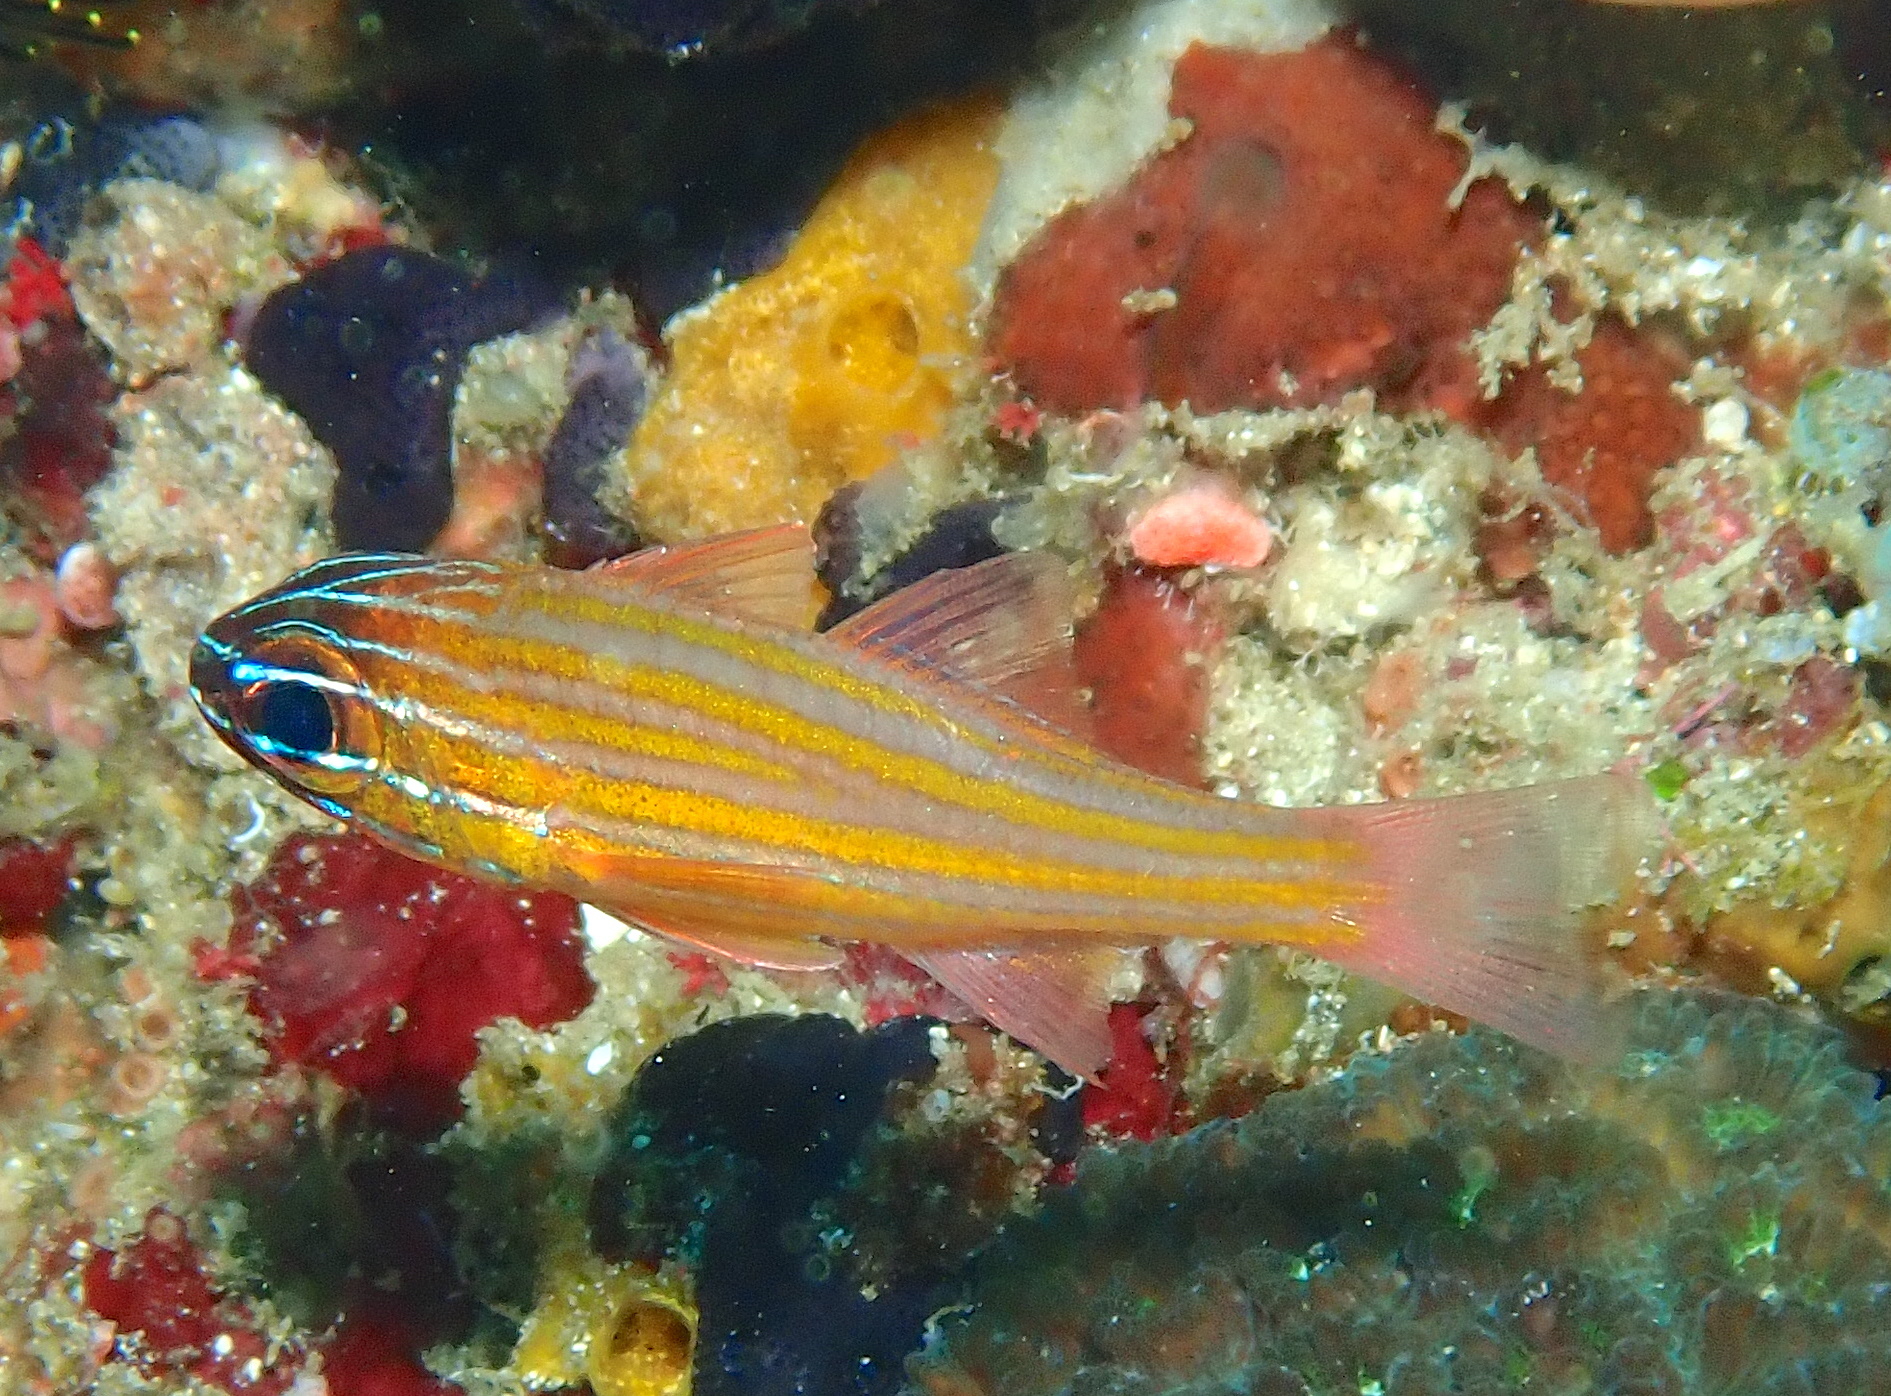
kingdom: Animalia
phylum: Chordata
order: Perciformes
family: Apogonidae
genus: Ostorhinchus
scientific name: Ostorhinchus cyanosoma
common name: Yellow-striped cardinalfish
